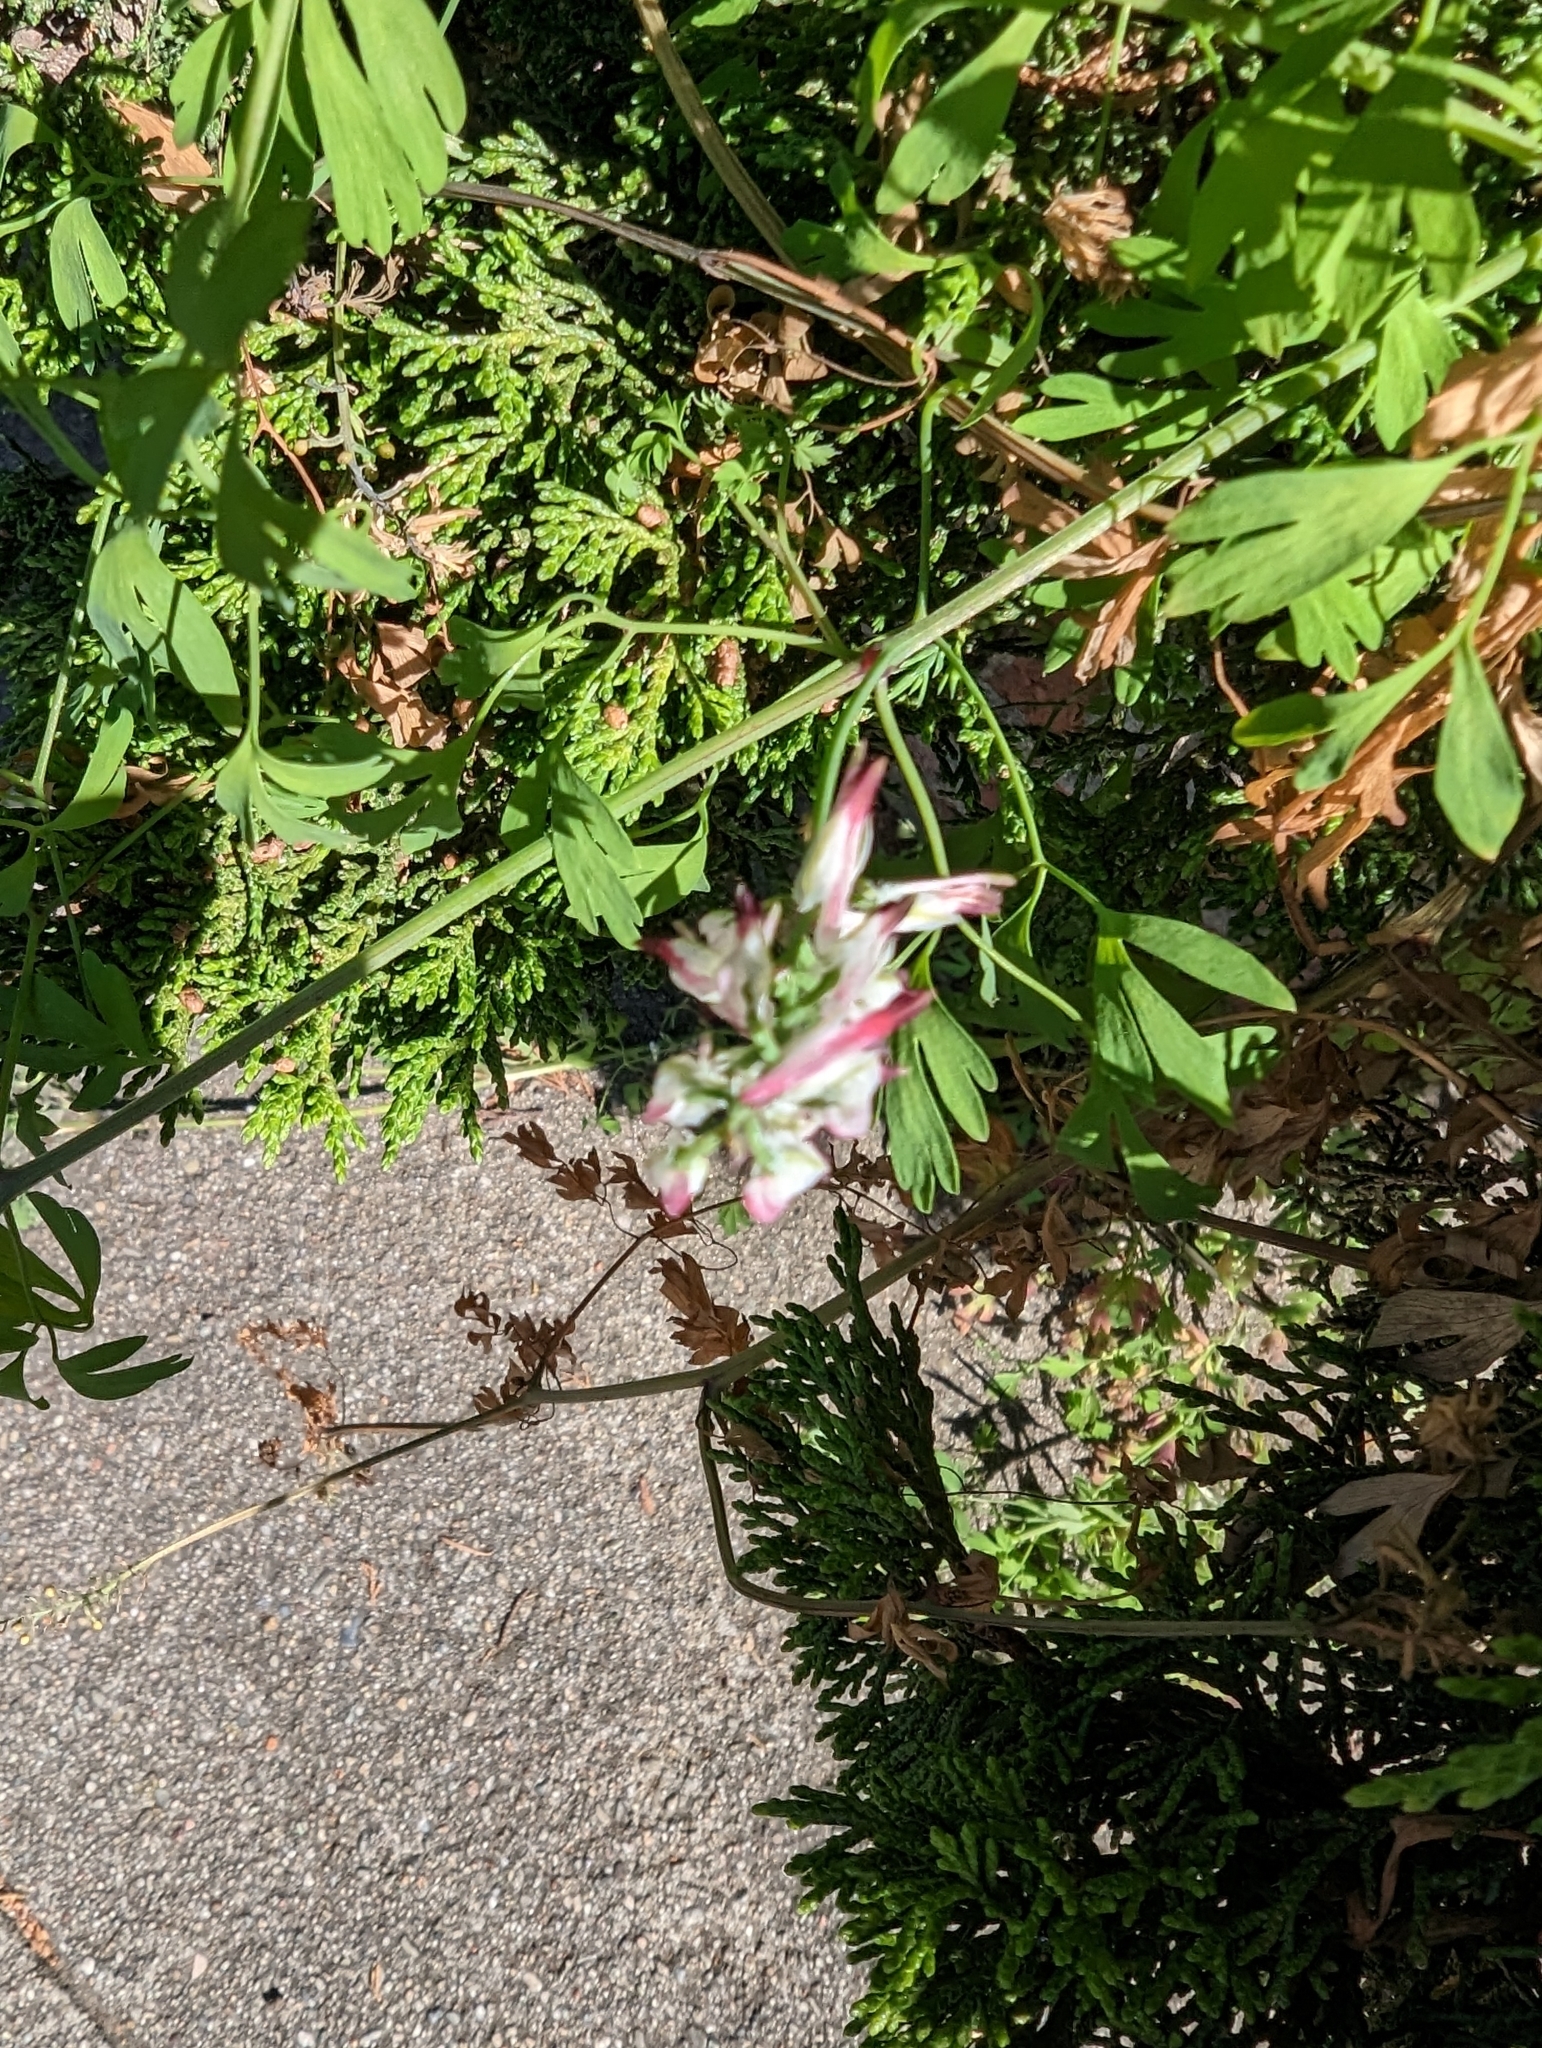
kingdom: Plantae
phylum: Tracheophyta
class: Magnoliopsida
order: Ranunculales
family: Papaveraceae
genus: Fumaria
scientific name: Fumaria capreolata
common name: White ramping-fumitory
